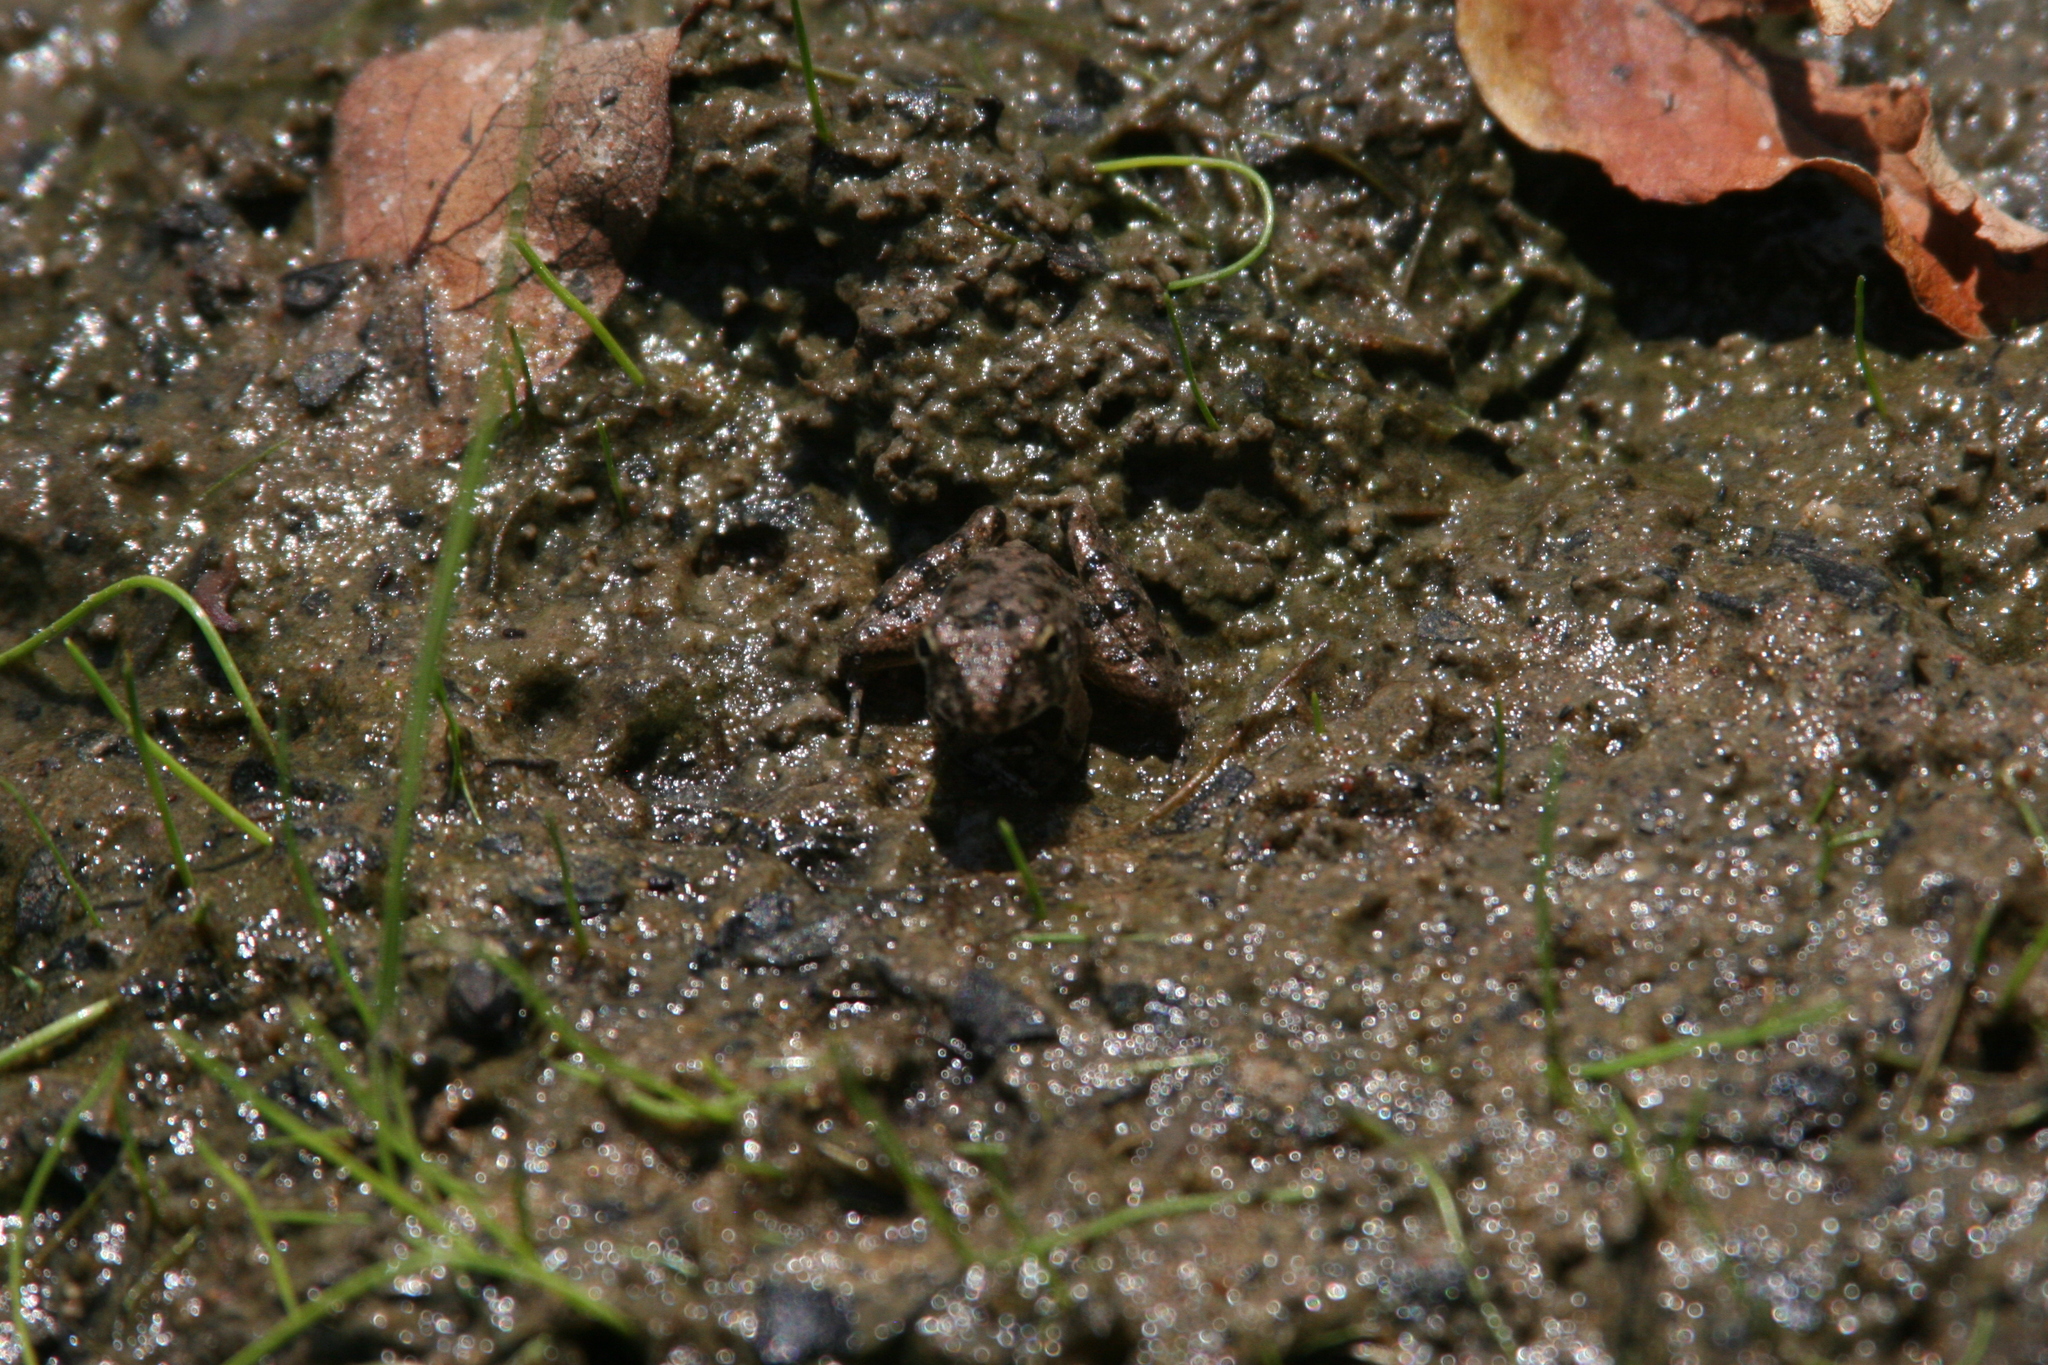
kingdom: Animalia
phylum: Chordata
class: Amphibia
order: Anura
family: Hylidae
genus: Acris
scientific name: Acris blanchardi
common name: Blanchard's cricket frog
